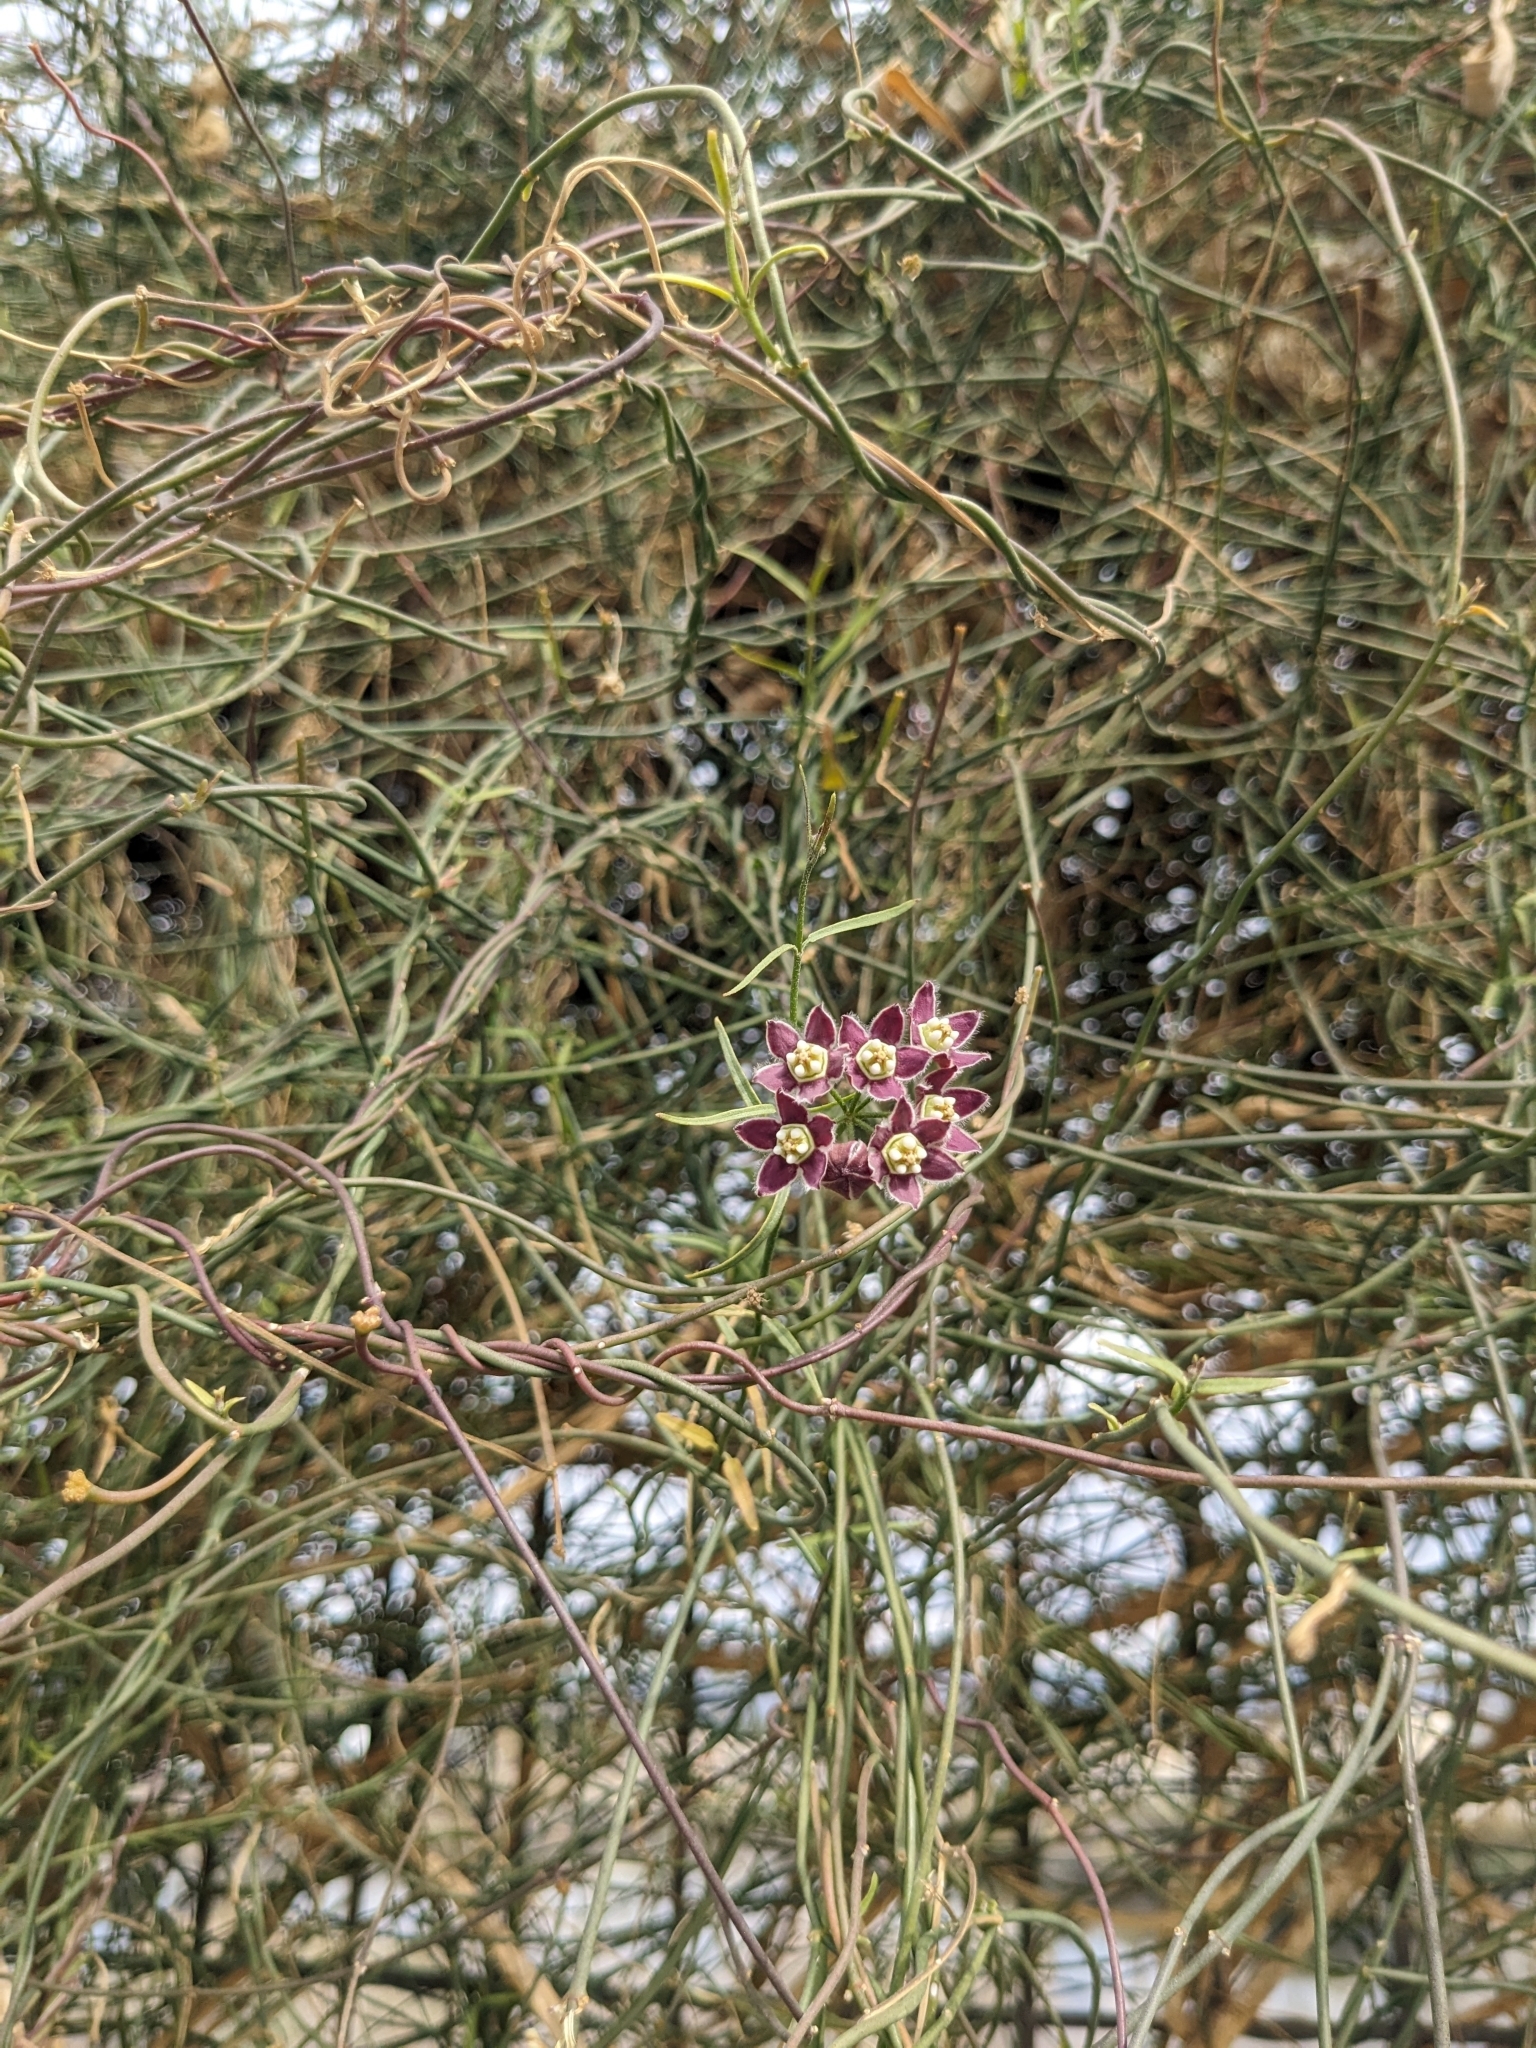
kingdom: Plantae
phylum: Tracheophyta
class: Magnoliopsida
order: Gentianales
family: Apocynaceae
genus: Funastrum
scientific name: Funastrum heterophyllum
